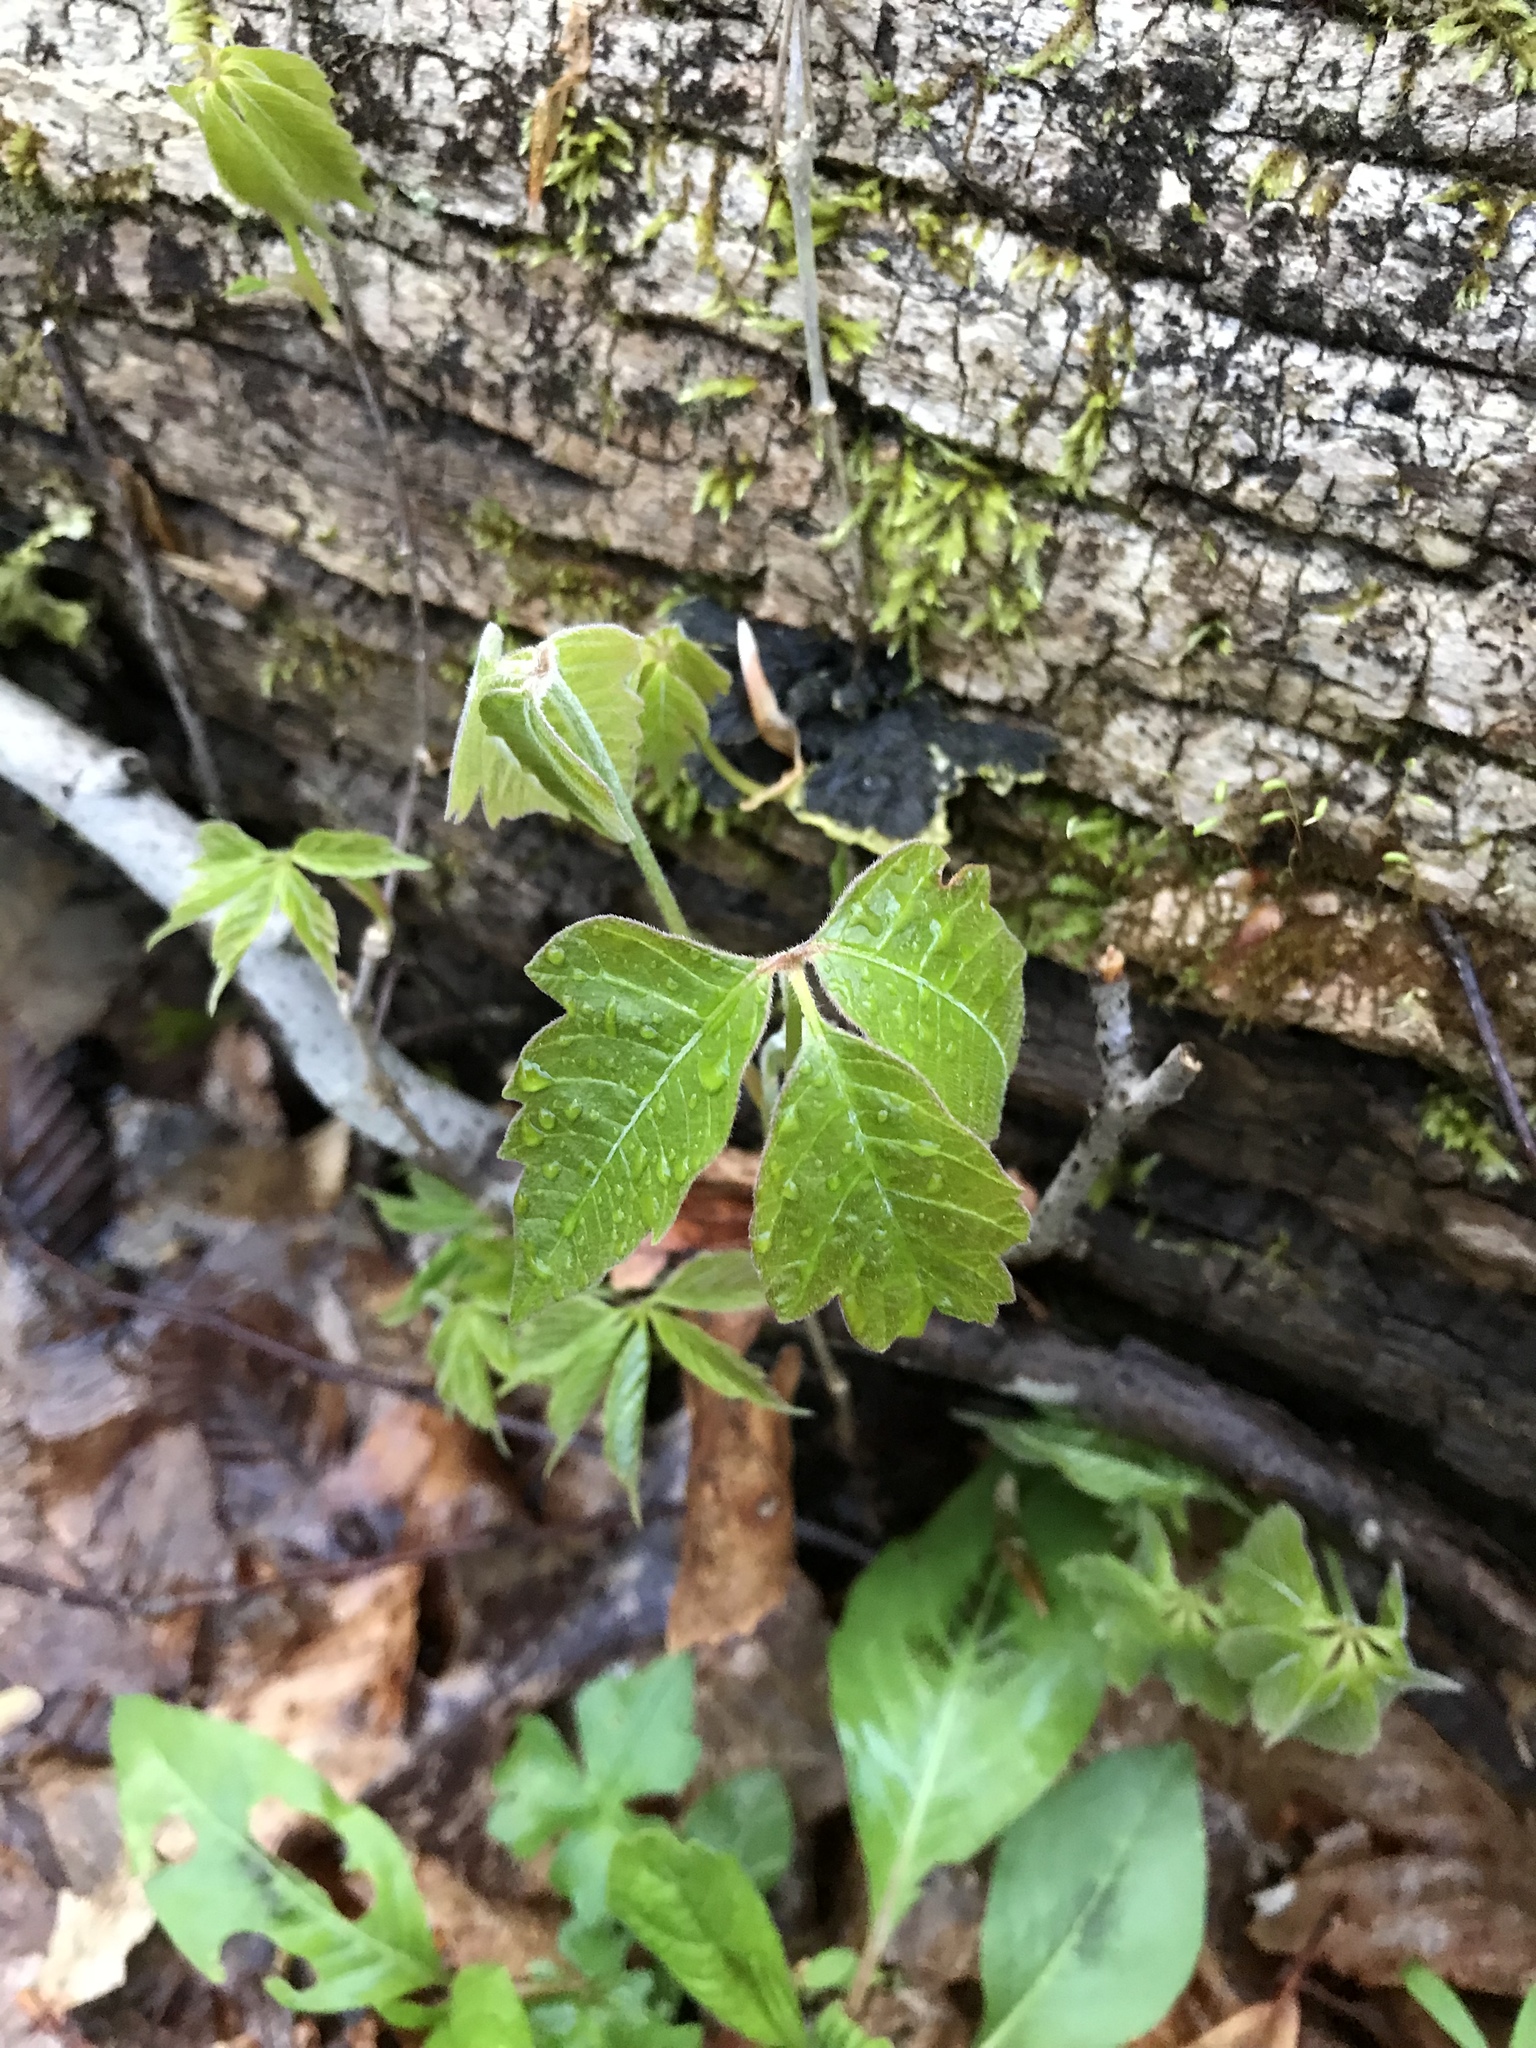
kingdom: Plantae
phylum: Tracheophyta
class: Magnoliopsida
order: Sapindales
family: Anacardiaceae
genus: Toxicodendron
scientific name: Toxicodendron radicans
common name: Poison ivy
